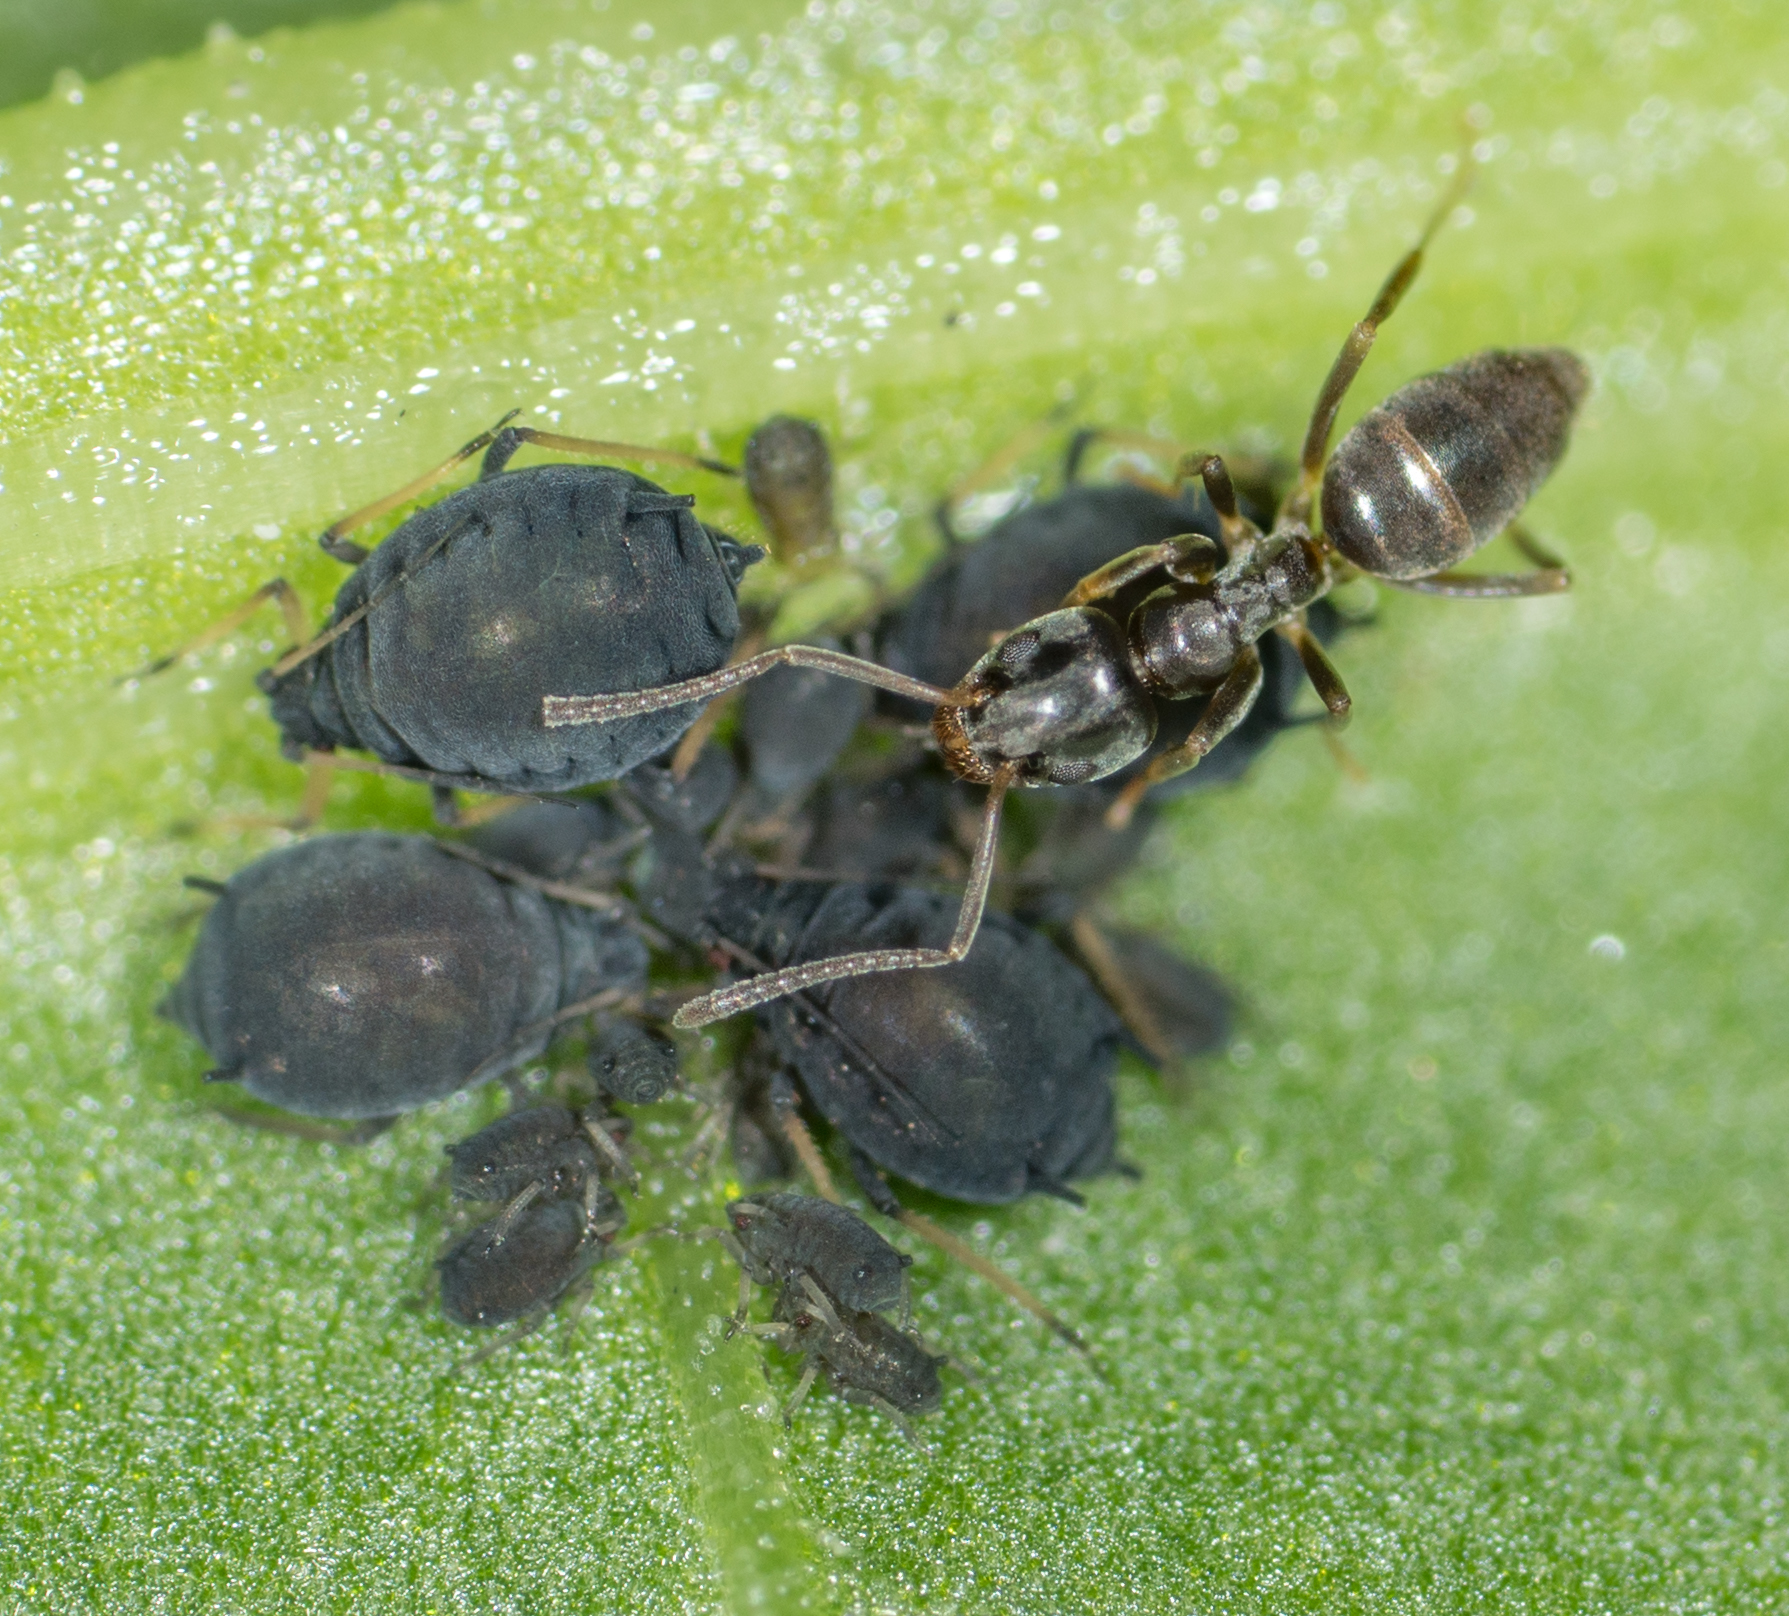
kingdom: Animalia
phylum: Arthropoda
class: Insecta
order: Hymenoptera
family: Formicidae
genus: Tapinoma
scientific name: Tapinoma sessile
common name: Odorous house ant
